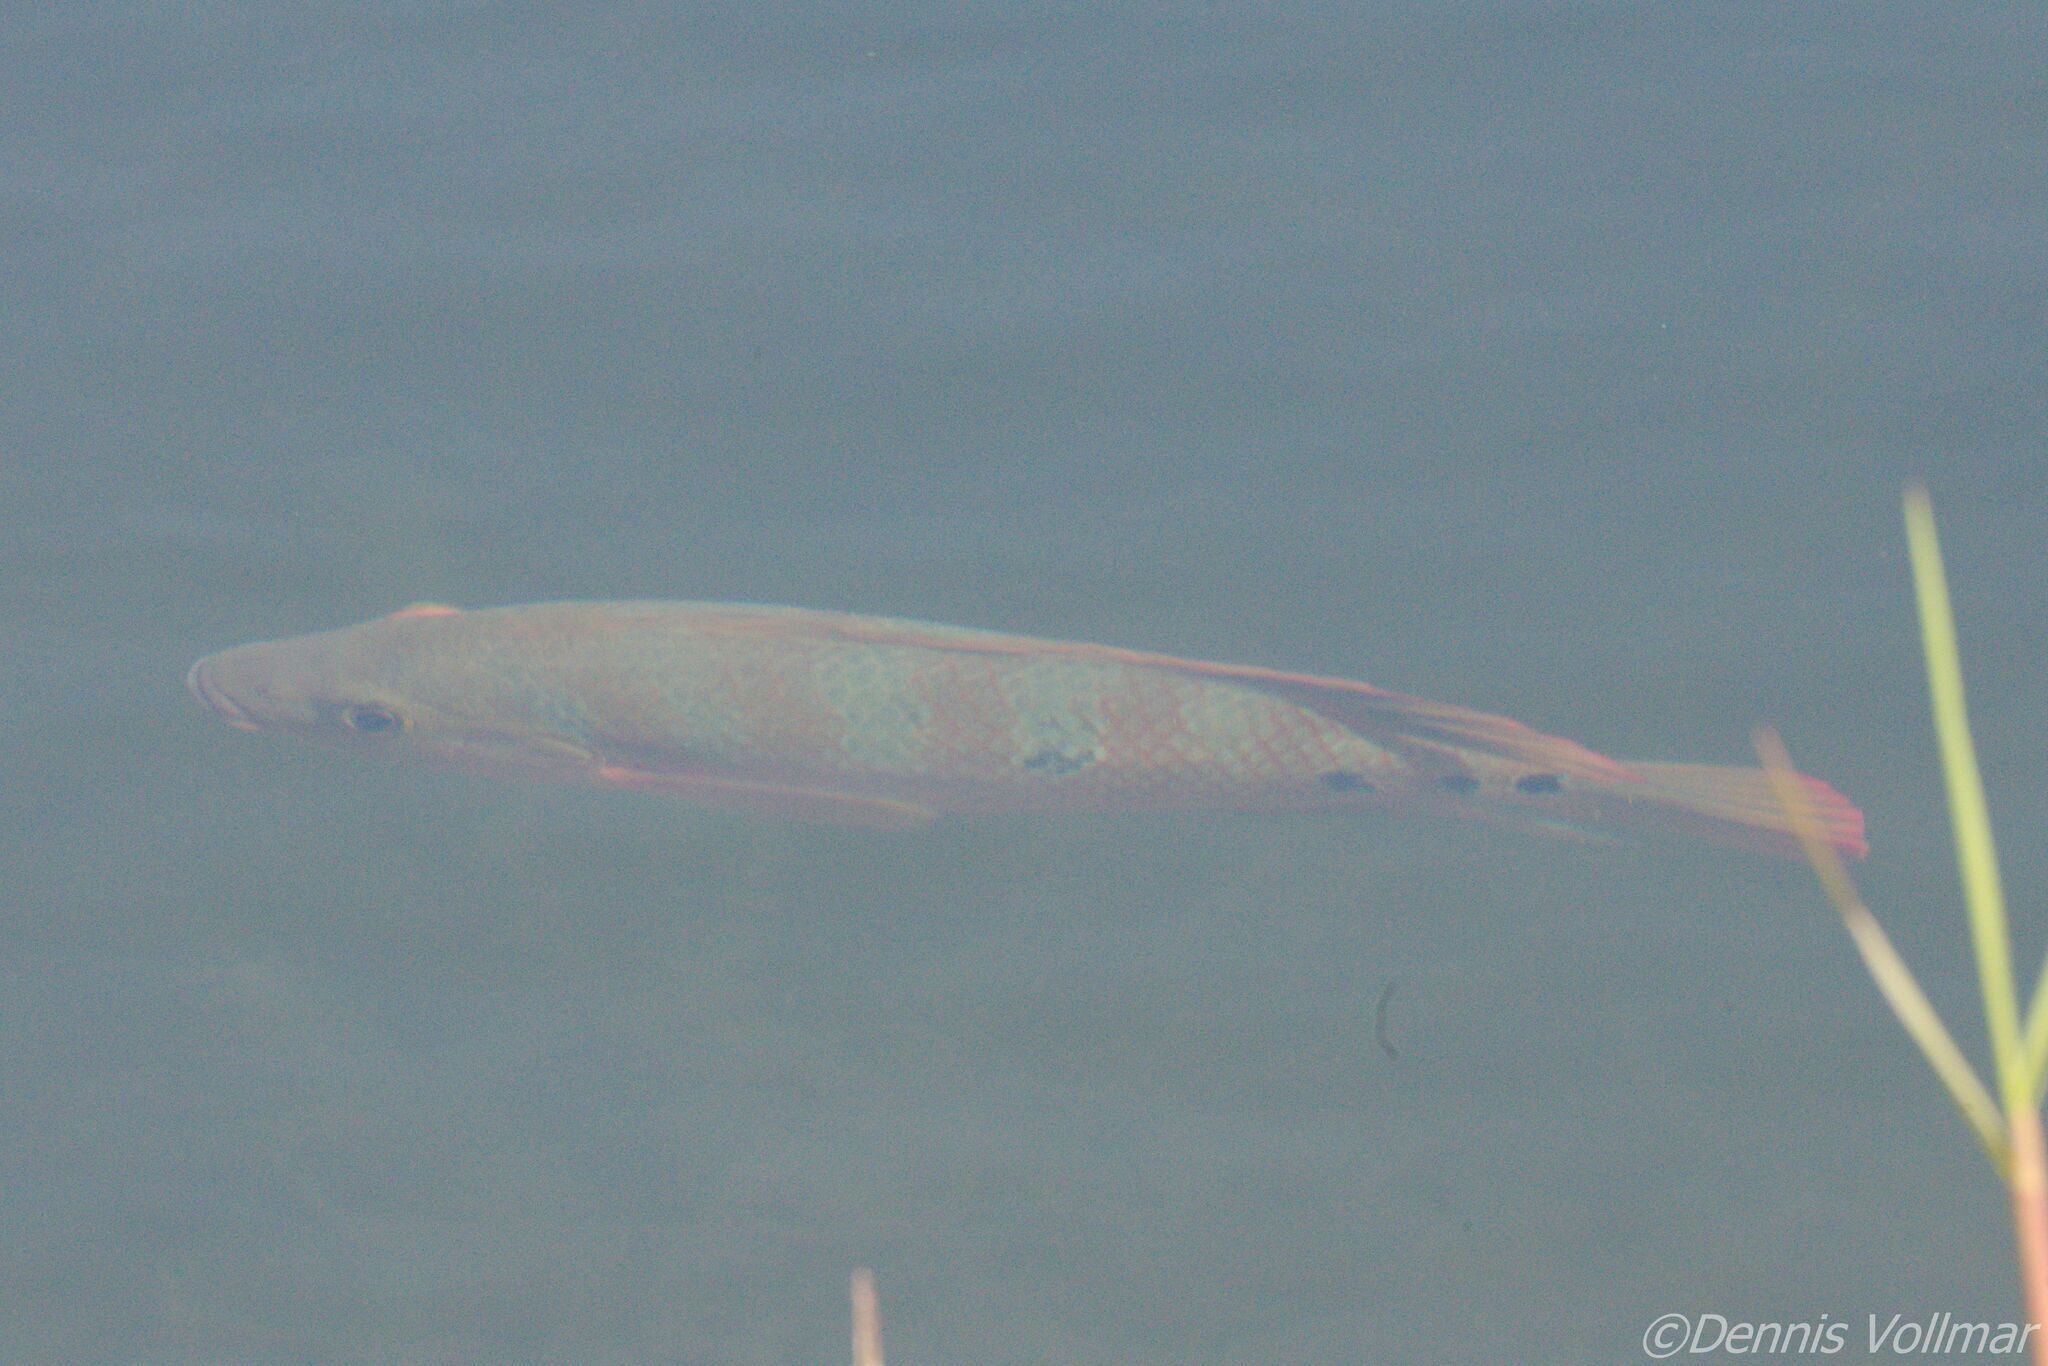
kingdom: Animalia
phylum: Chordata
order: Perciformes
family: Cichlidae
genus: Mayaheros
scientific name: Mayaheros urophthalmus
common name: Mayan cichlid
